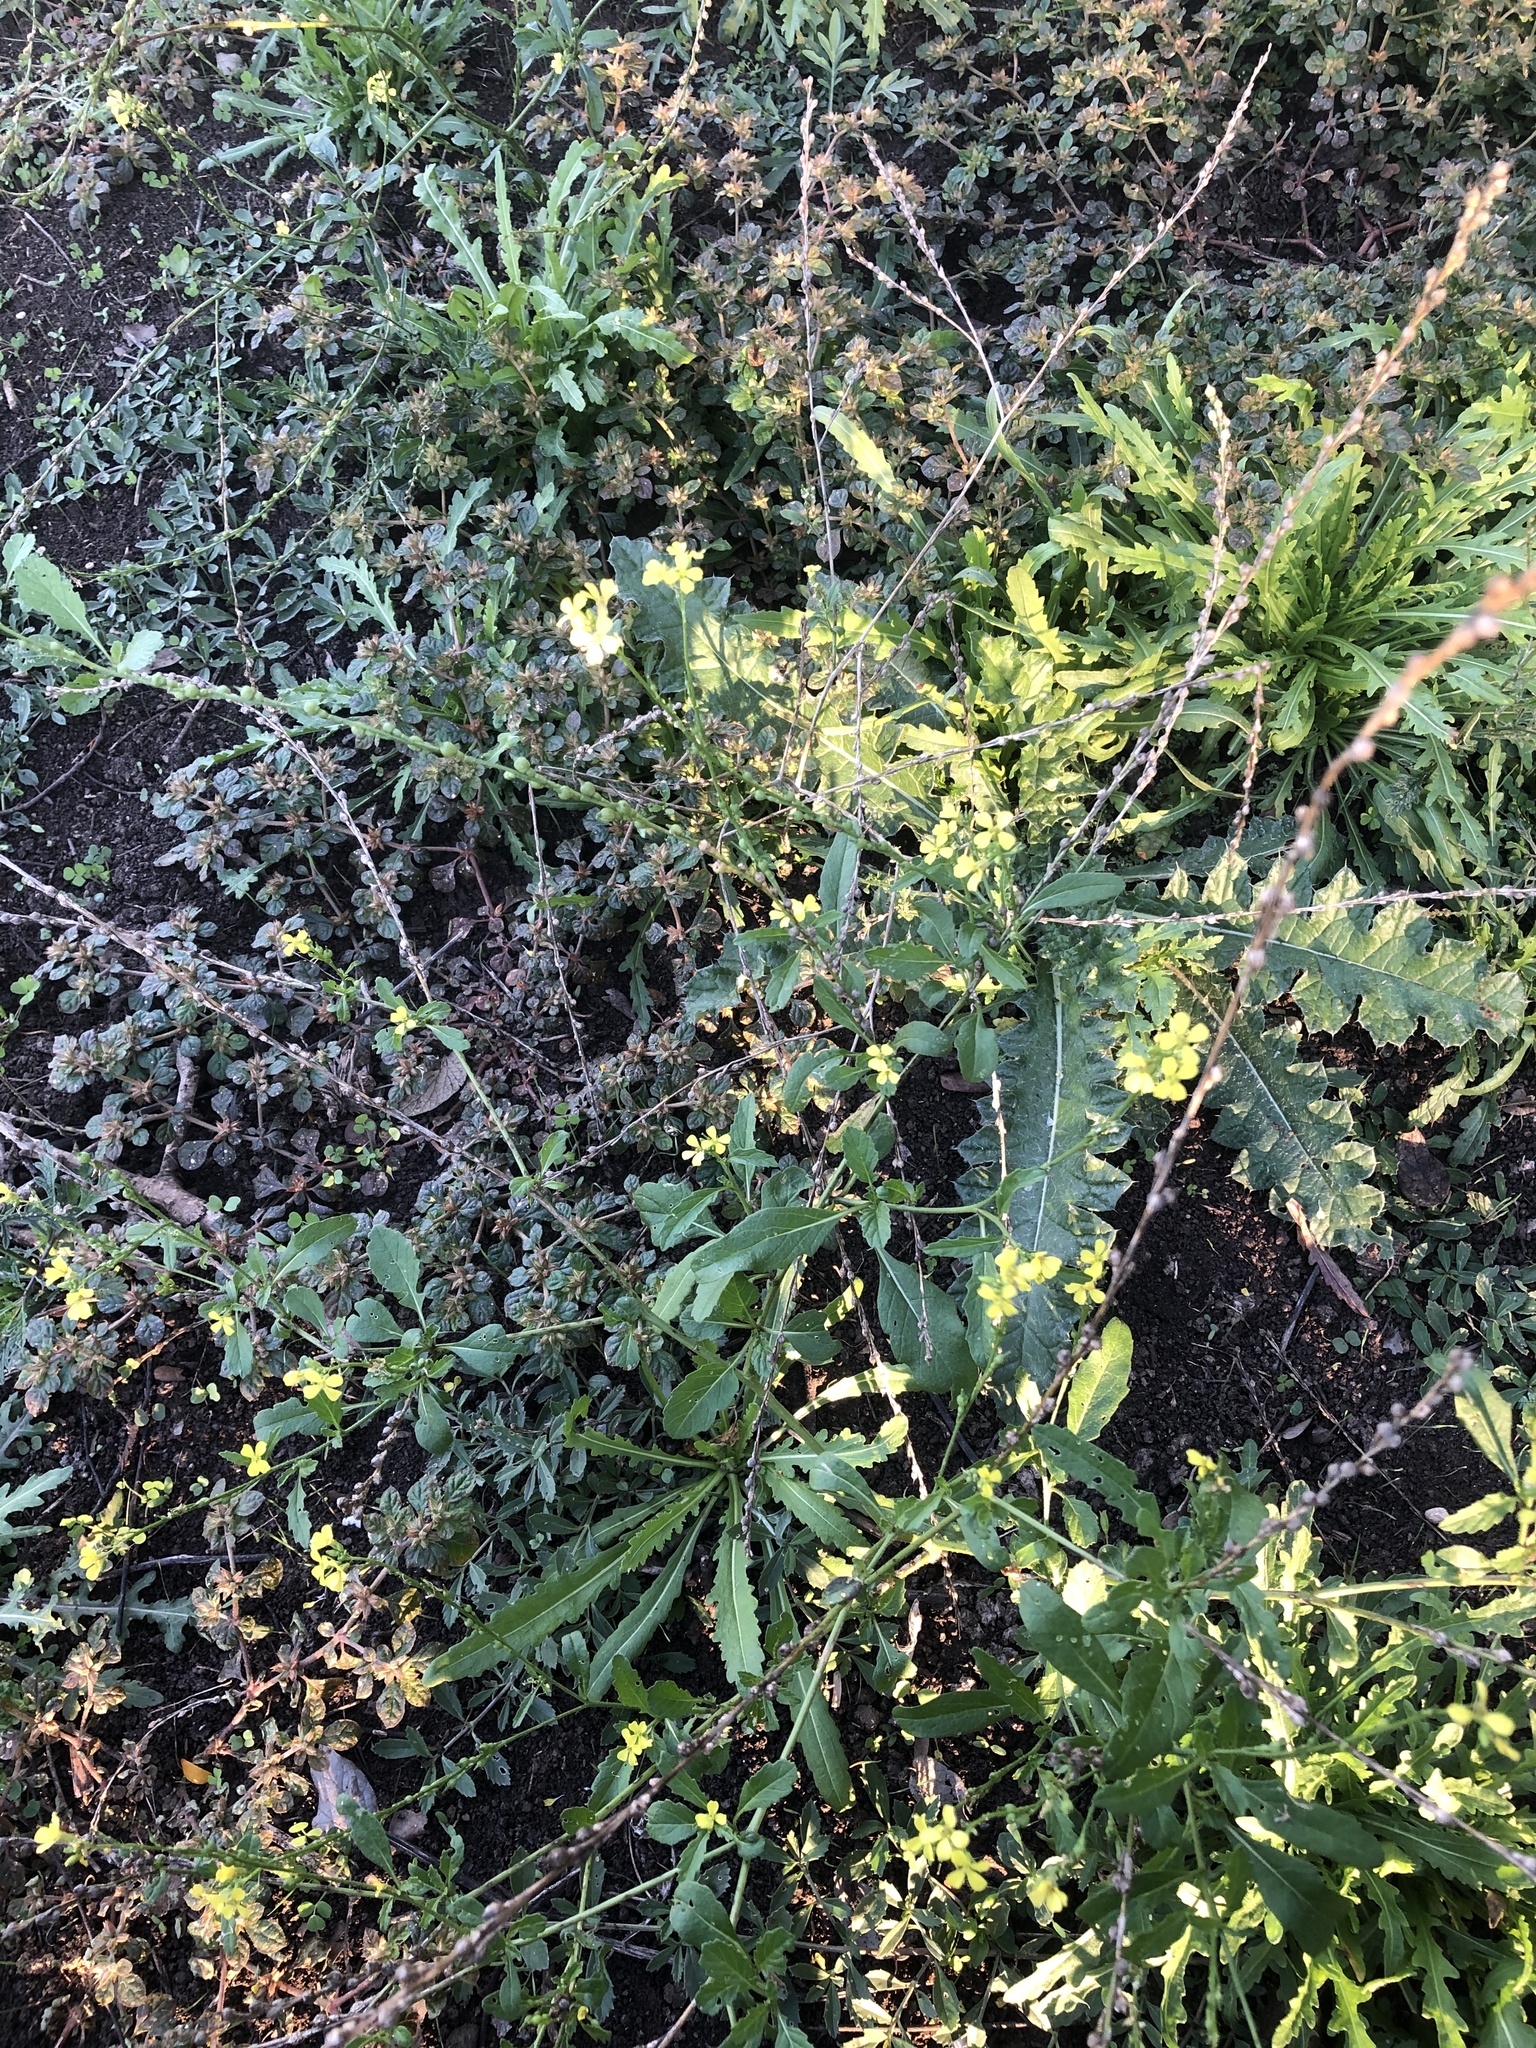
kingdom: Plantae
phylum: Tracheophyta
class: Magnoliopsida
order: Brassicales
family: Brassicaceae
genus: Rapistrum
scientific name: Rapistrum rugosum
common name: Annual bastardcabbage
